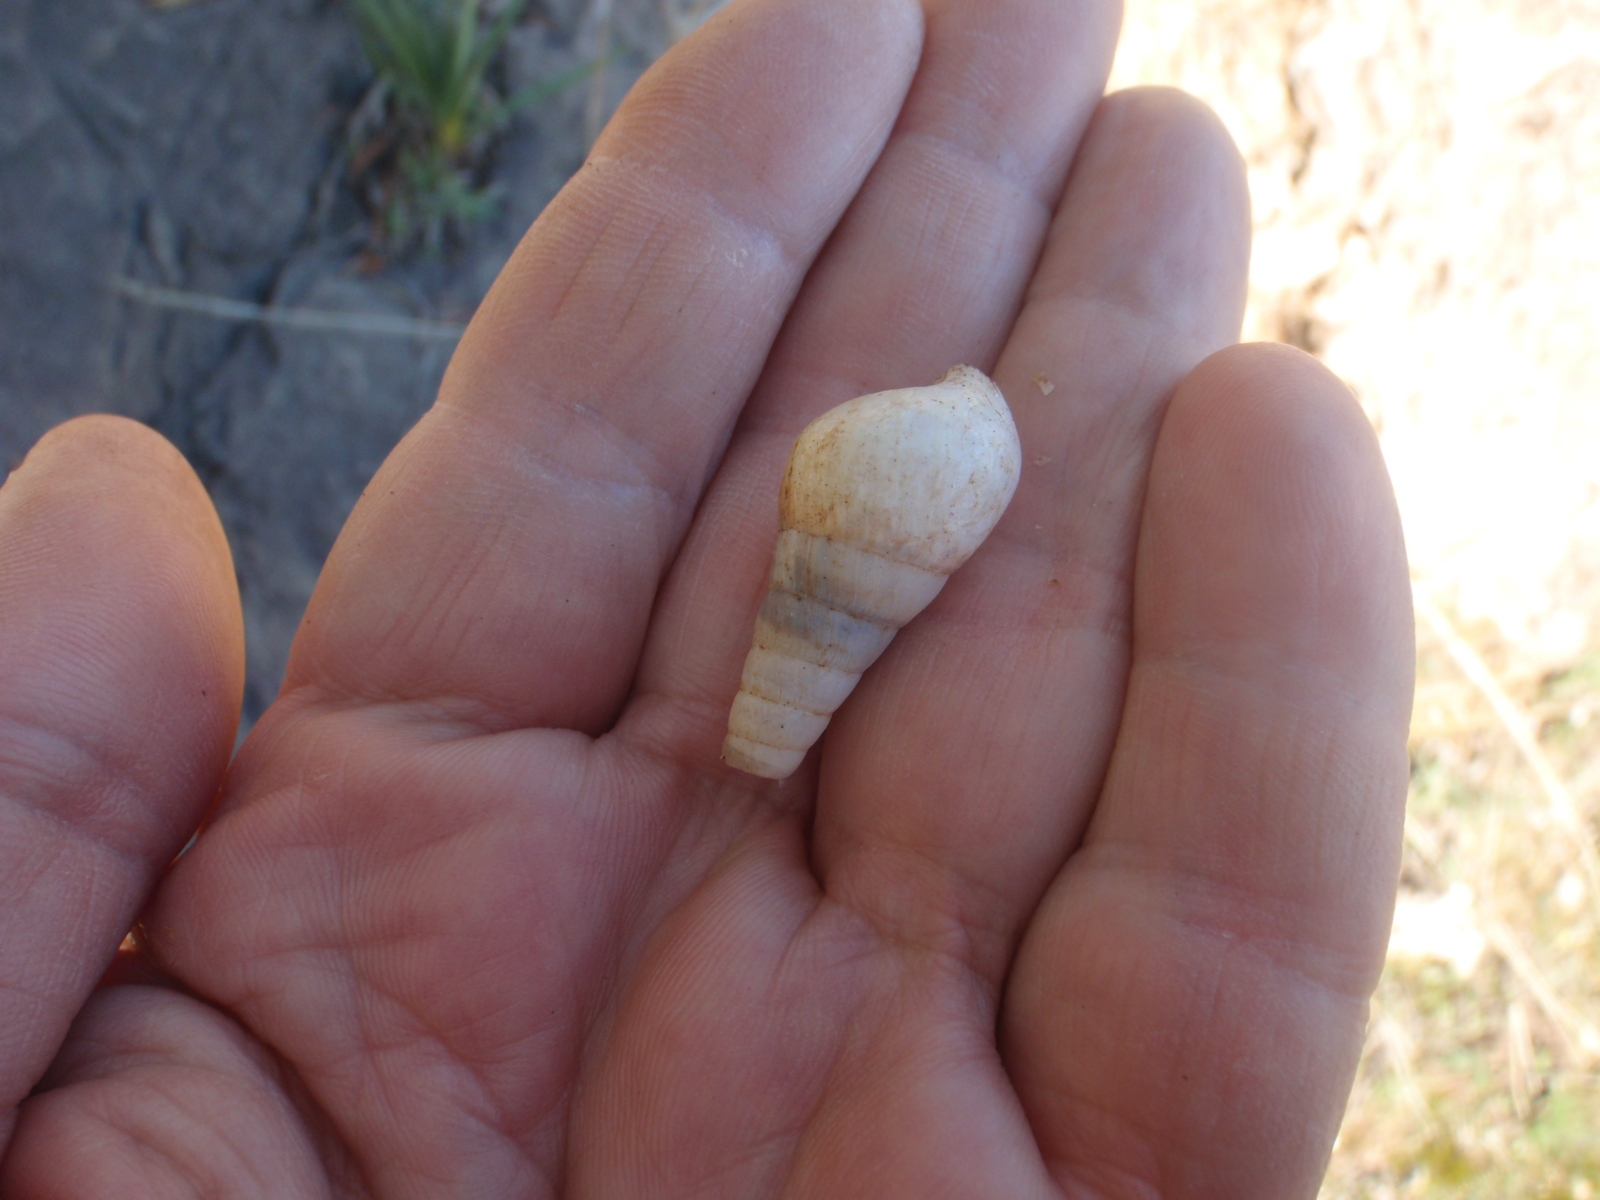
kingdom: Animalia
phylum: Mollusca
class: Gastropoda
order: Stylommatophora
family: Achatinidae
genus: Rumina
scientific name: Rumina decollata
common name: Decollate snail
